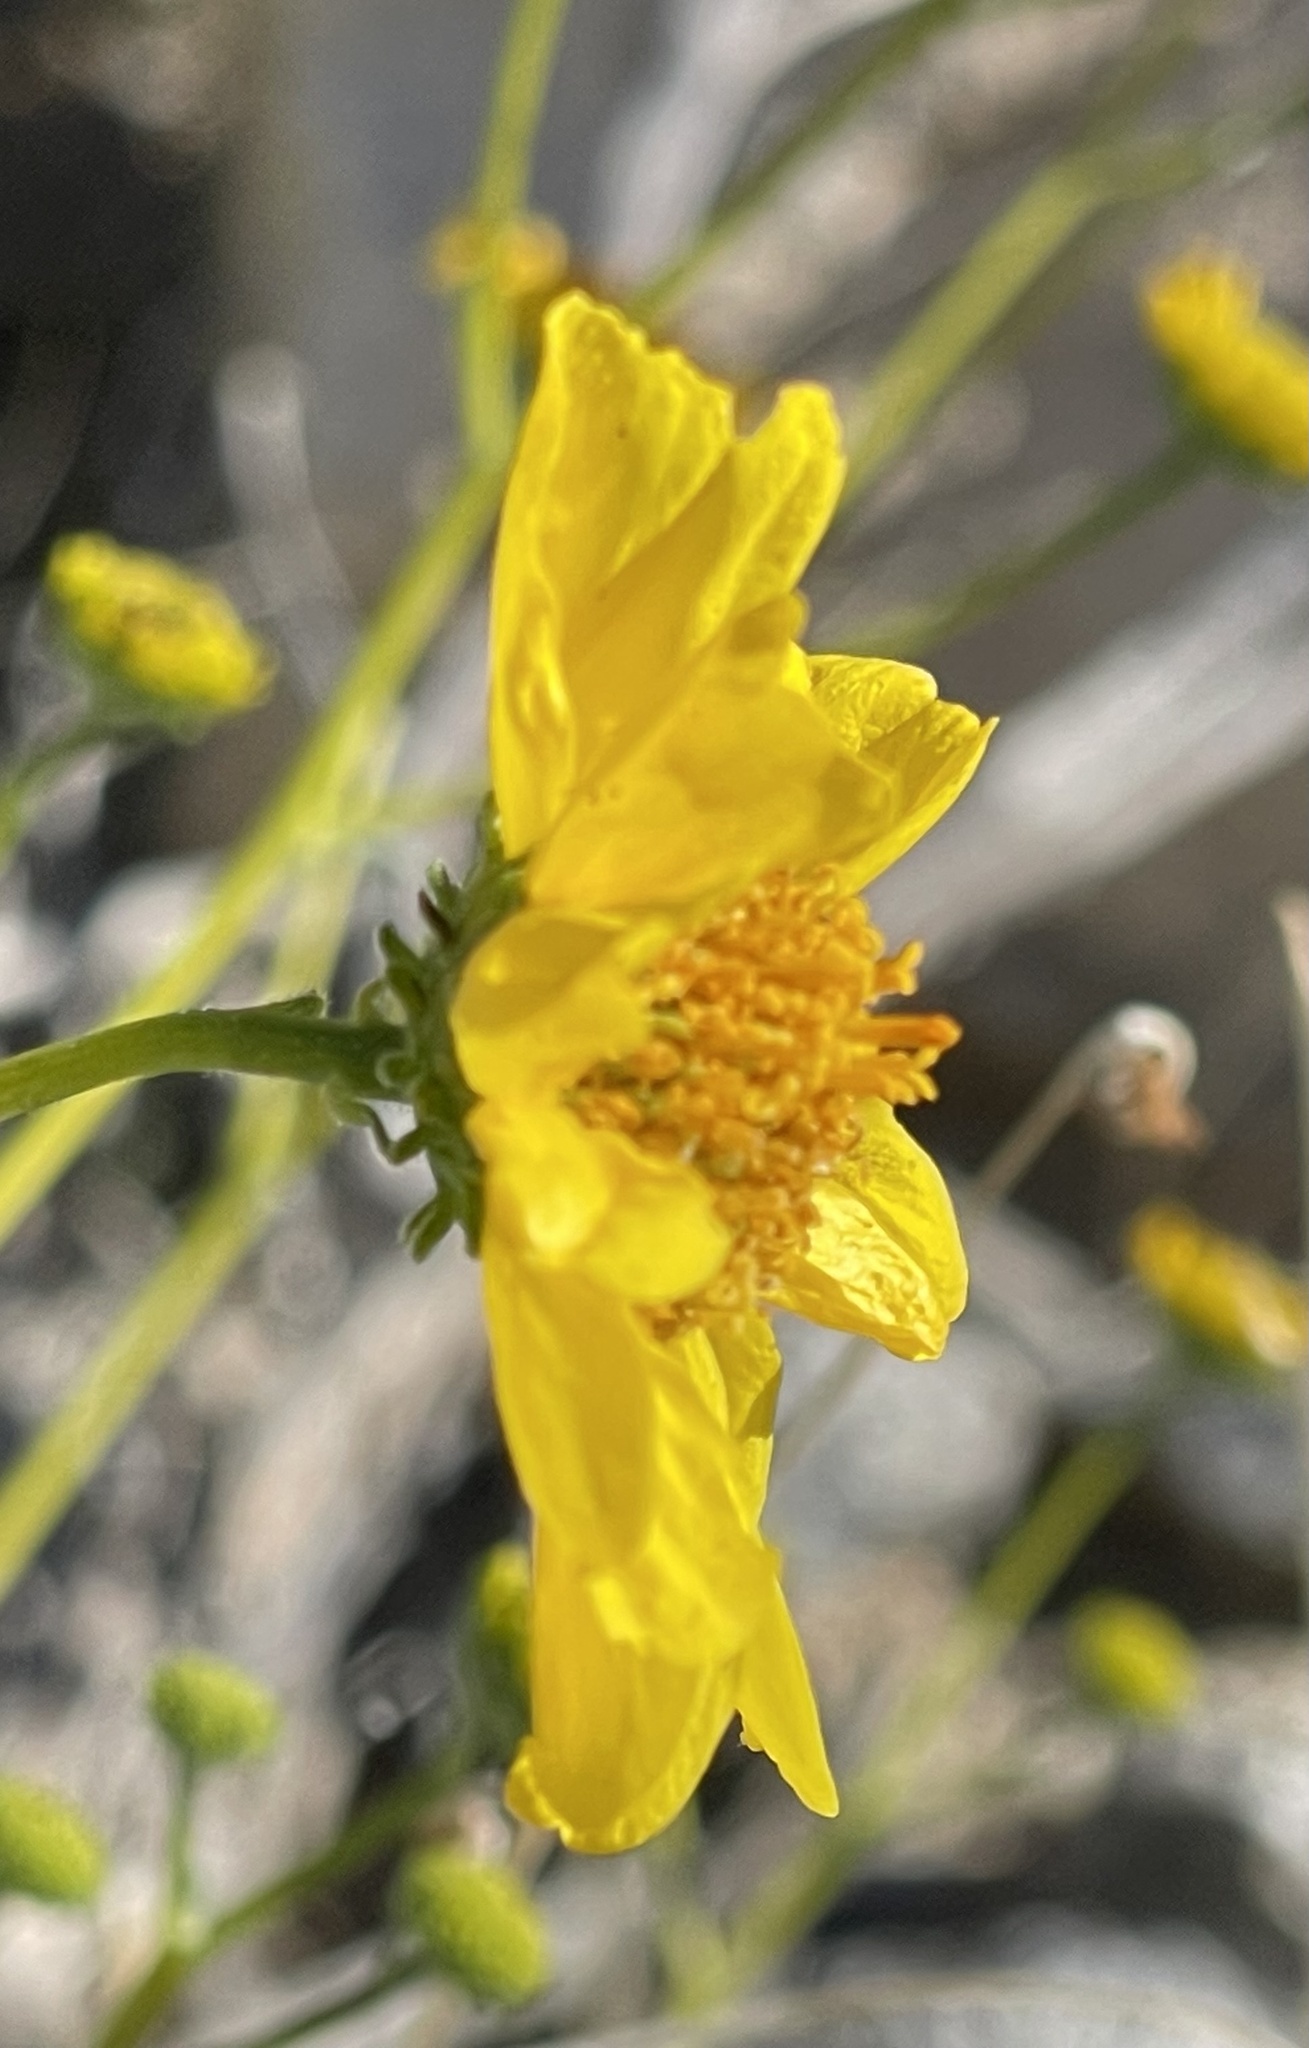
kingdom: Plantae
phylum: Tracheophyta
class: Magnoliopsida
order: Asterales
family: Asteraceae
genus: Encelia
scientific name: Encelia farinosa
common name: Brittlebush
